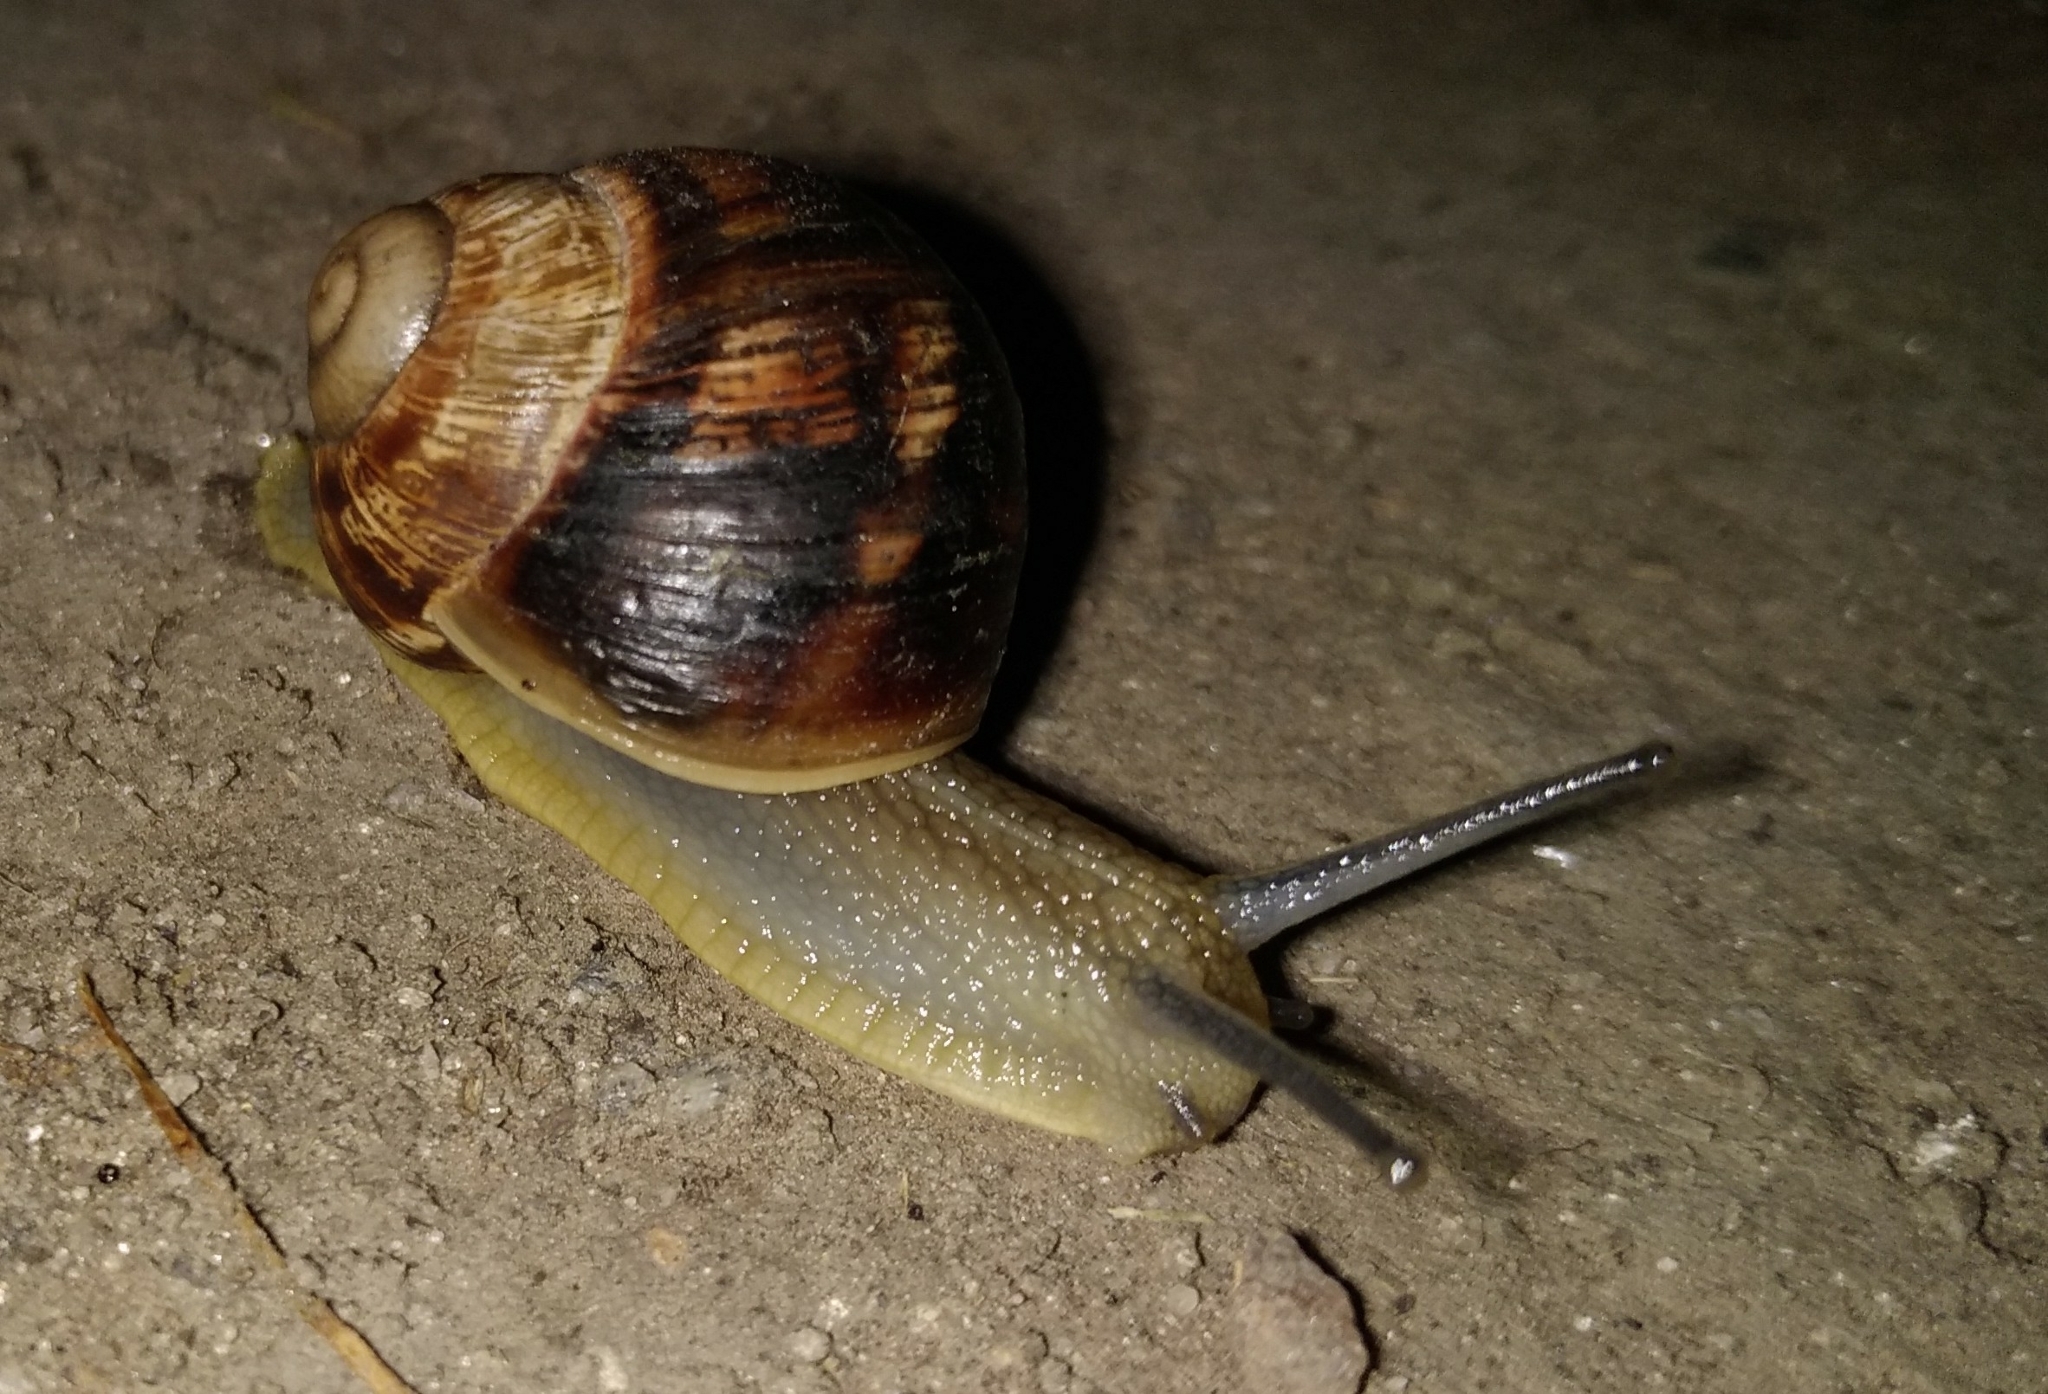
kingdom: Animalia
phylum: Mollusca
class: Gastropoda
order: Stylommatophora
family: Helicidae
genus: Helix
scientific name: Helix albescens
